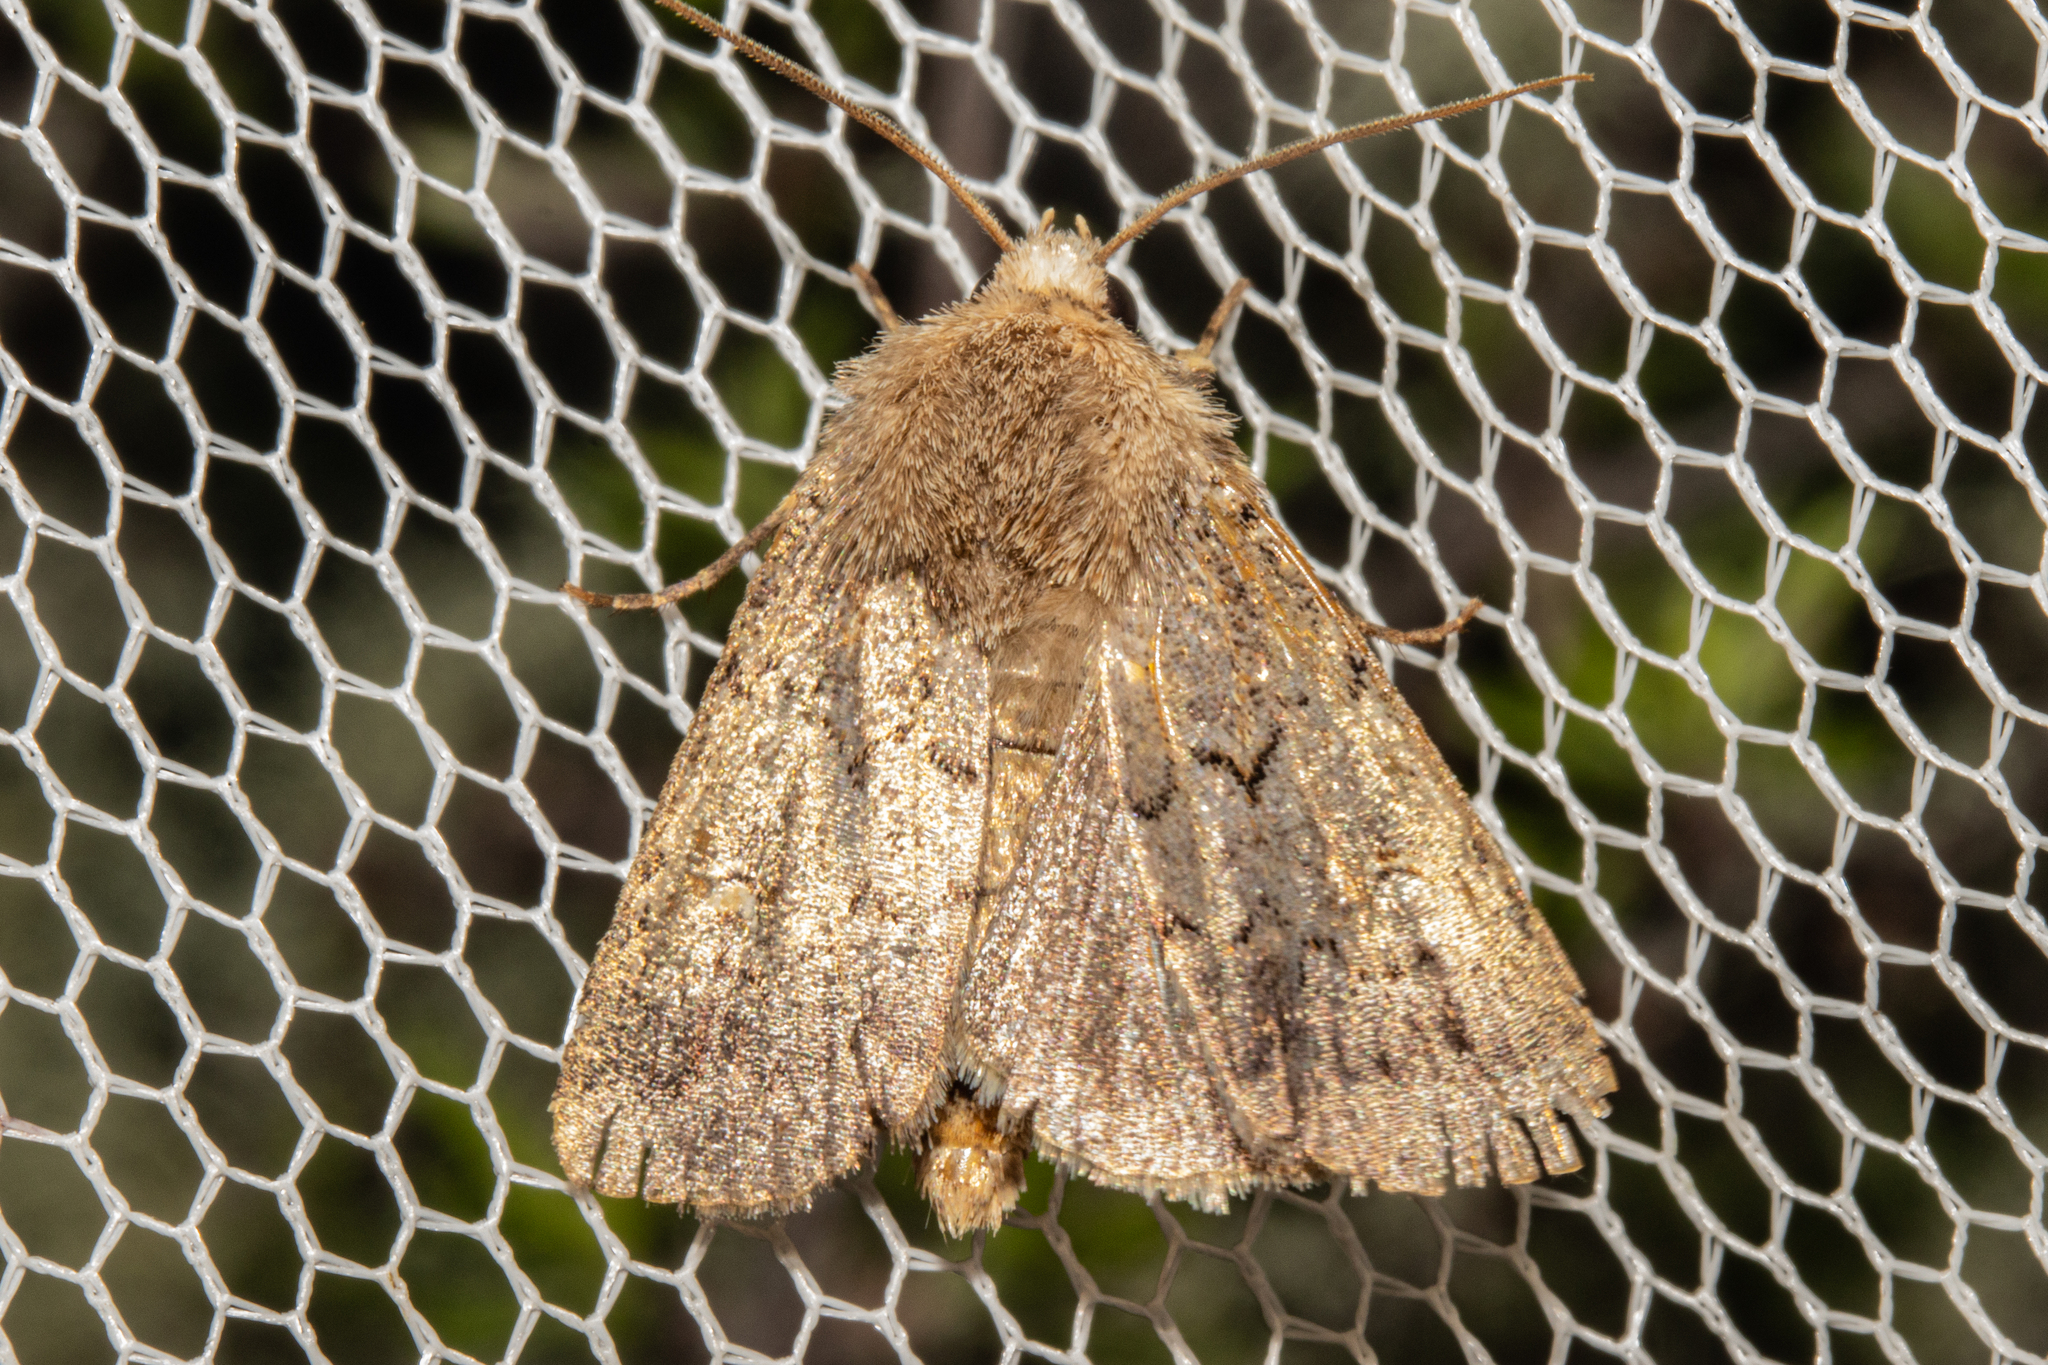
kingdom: Animalia
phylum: Arthropoda
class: Insecta
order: Lepidoptera
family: Noctuidae
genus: Proteuxoa
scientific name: Proteuxoa tetronycha
